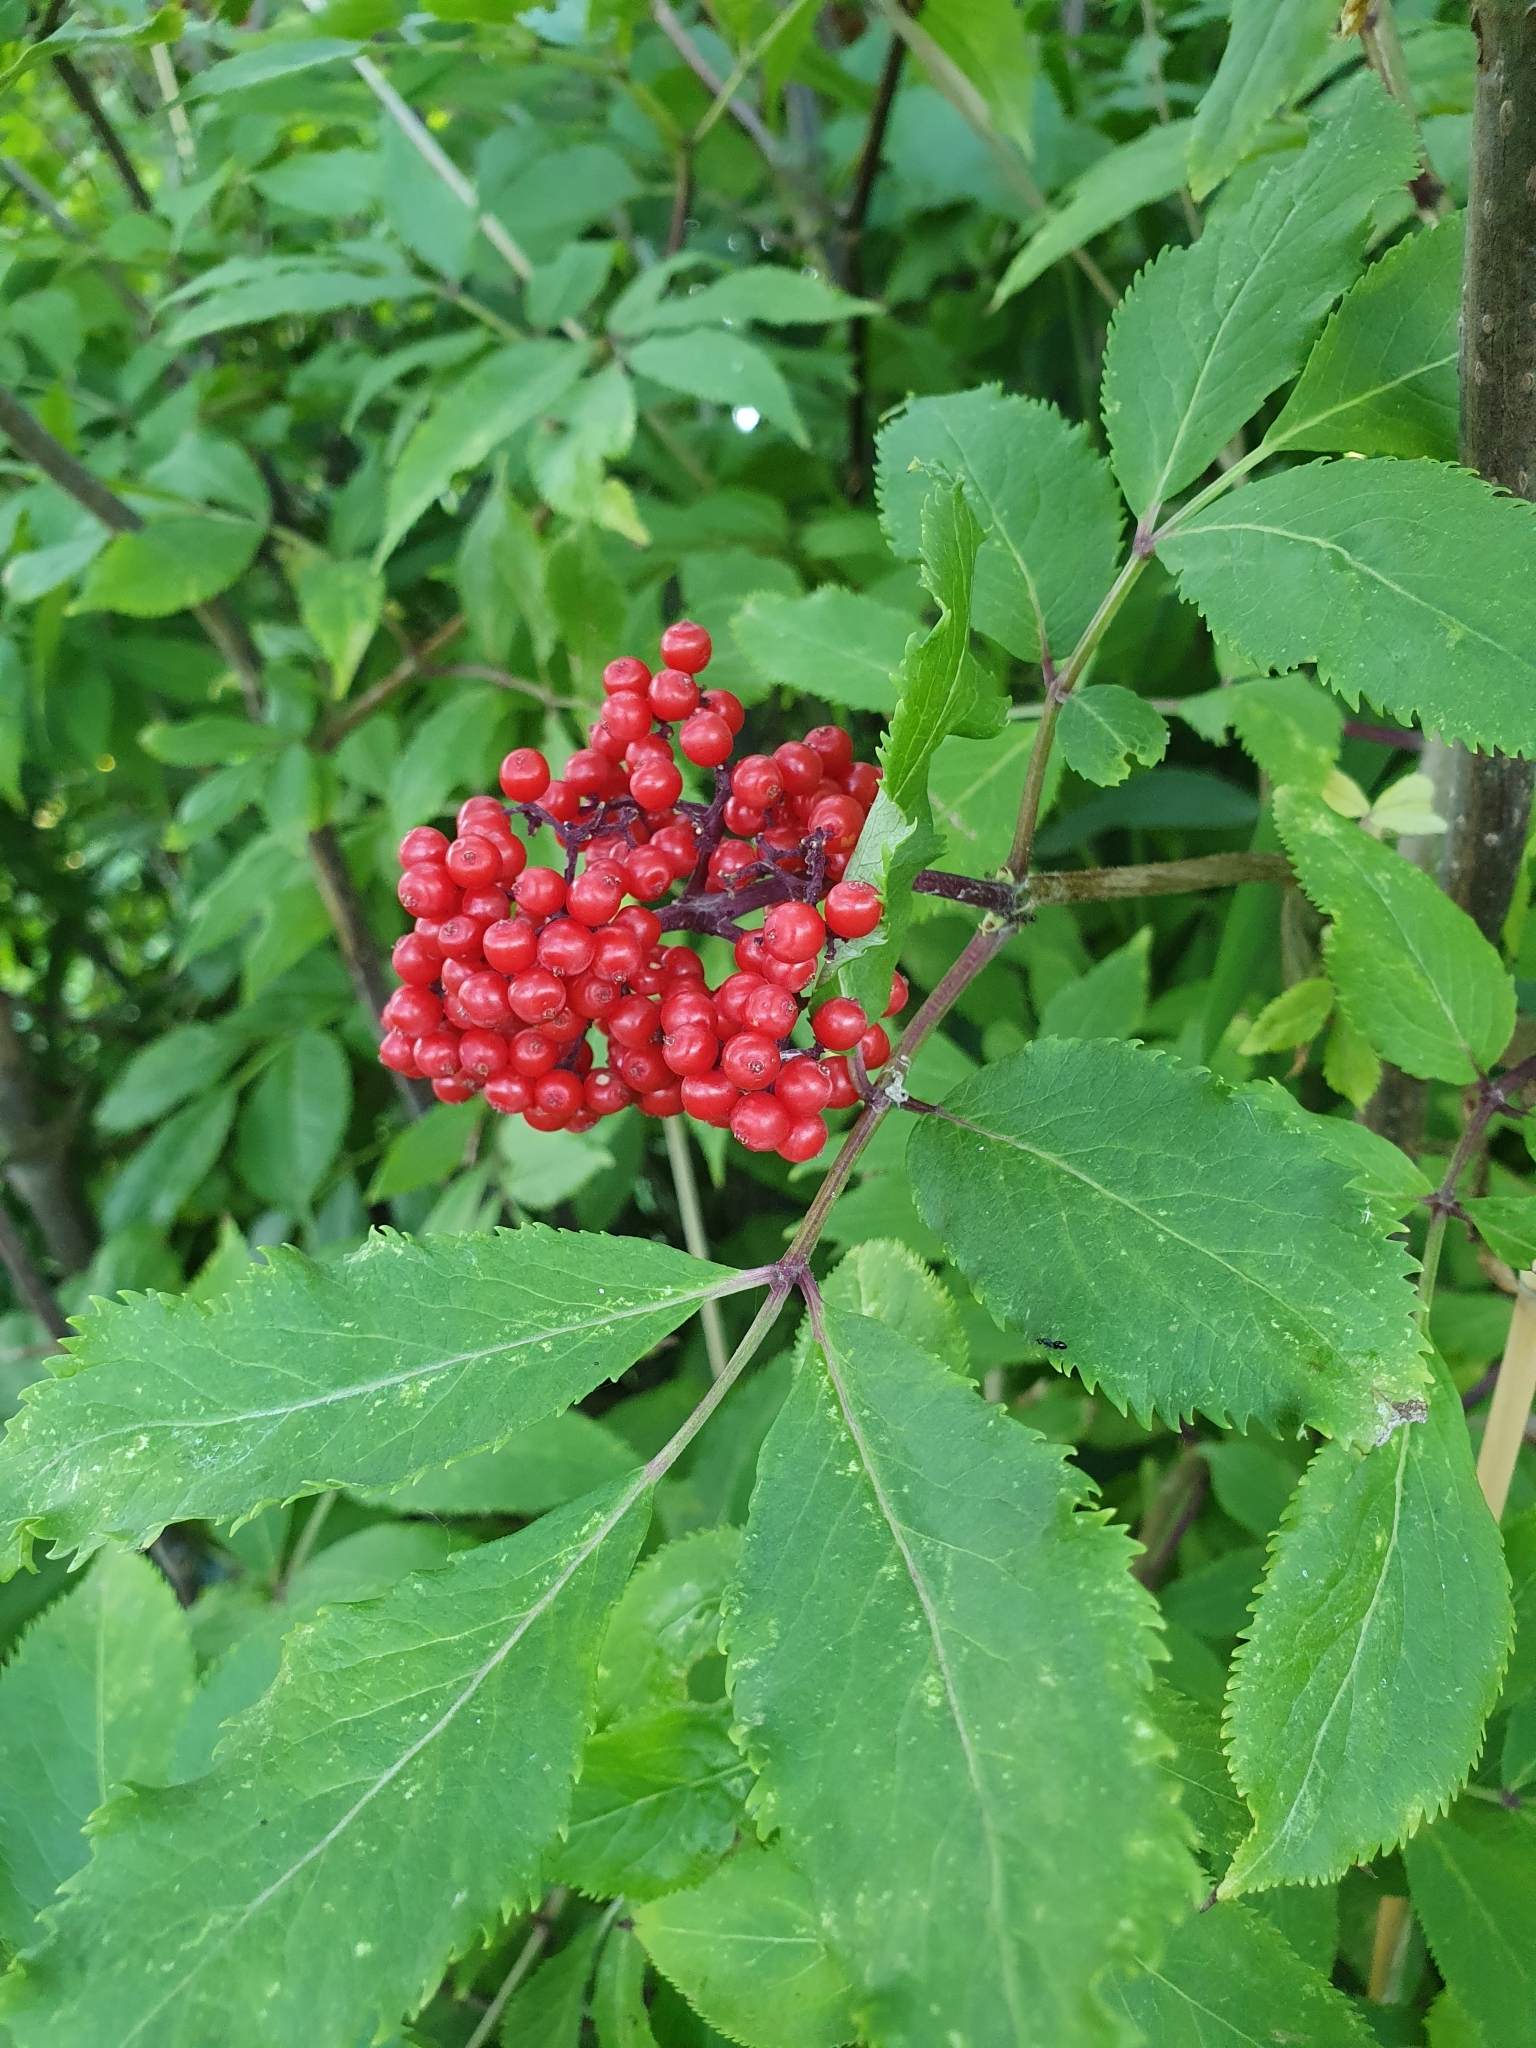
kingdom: Plantae
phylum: Tracheophyta
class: Magnoliopsida
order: Dipsacales
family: Viburnaceae
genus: Sambucus
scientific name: Sambucus racemosa
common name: Red-berried elder
